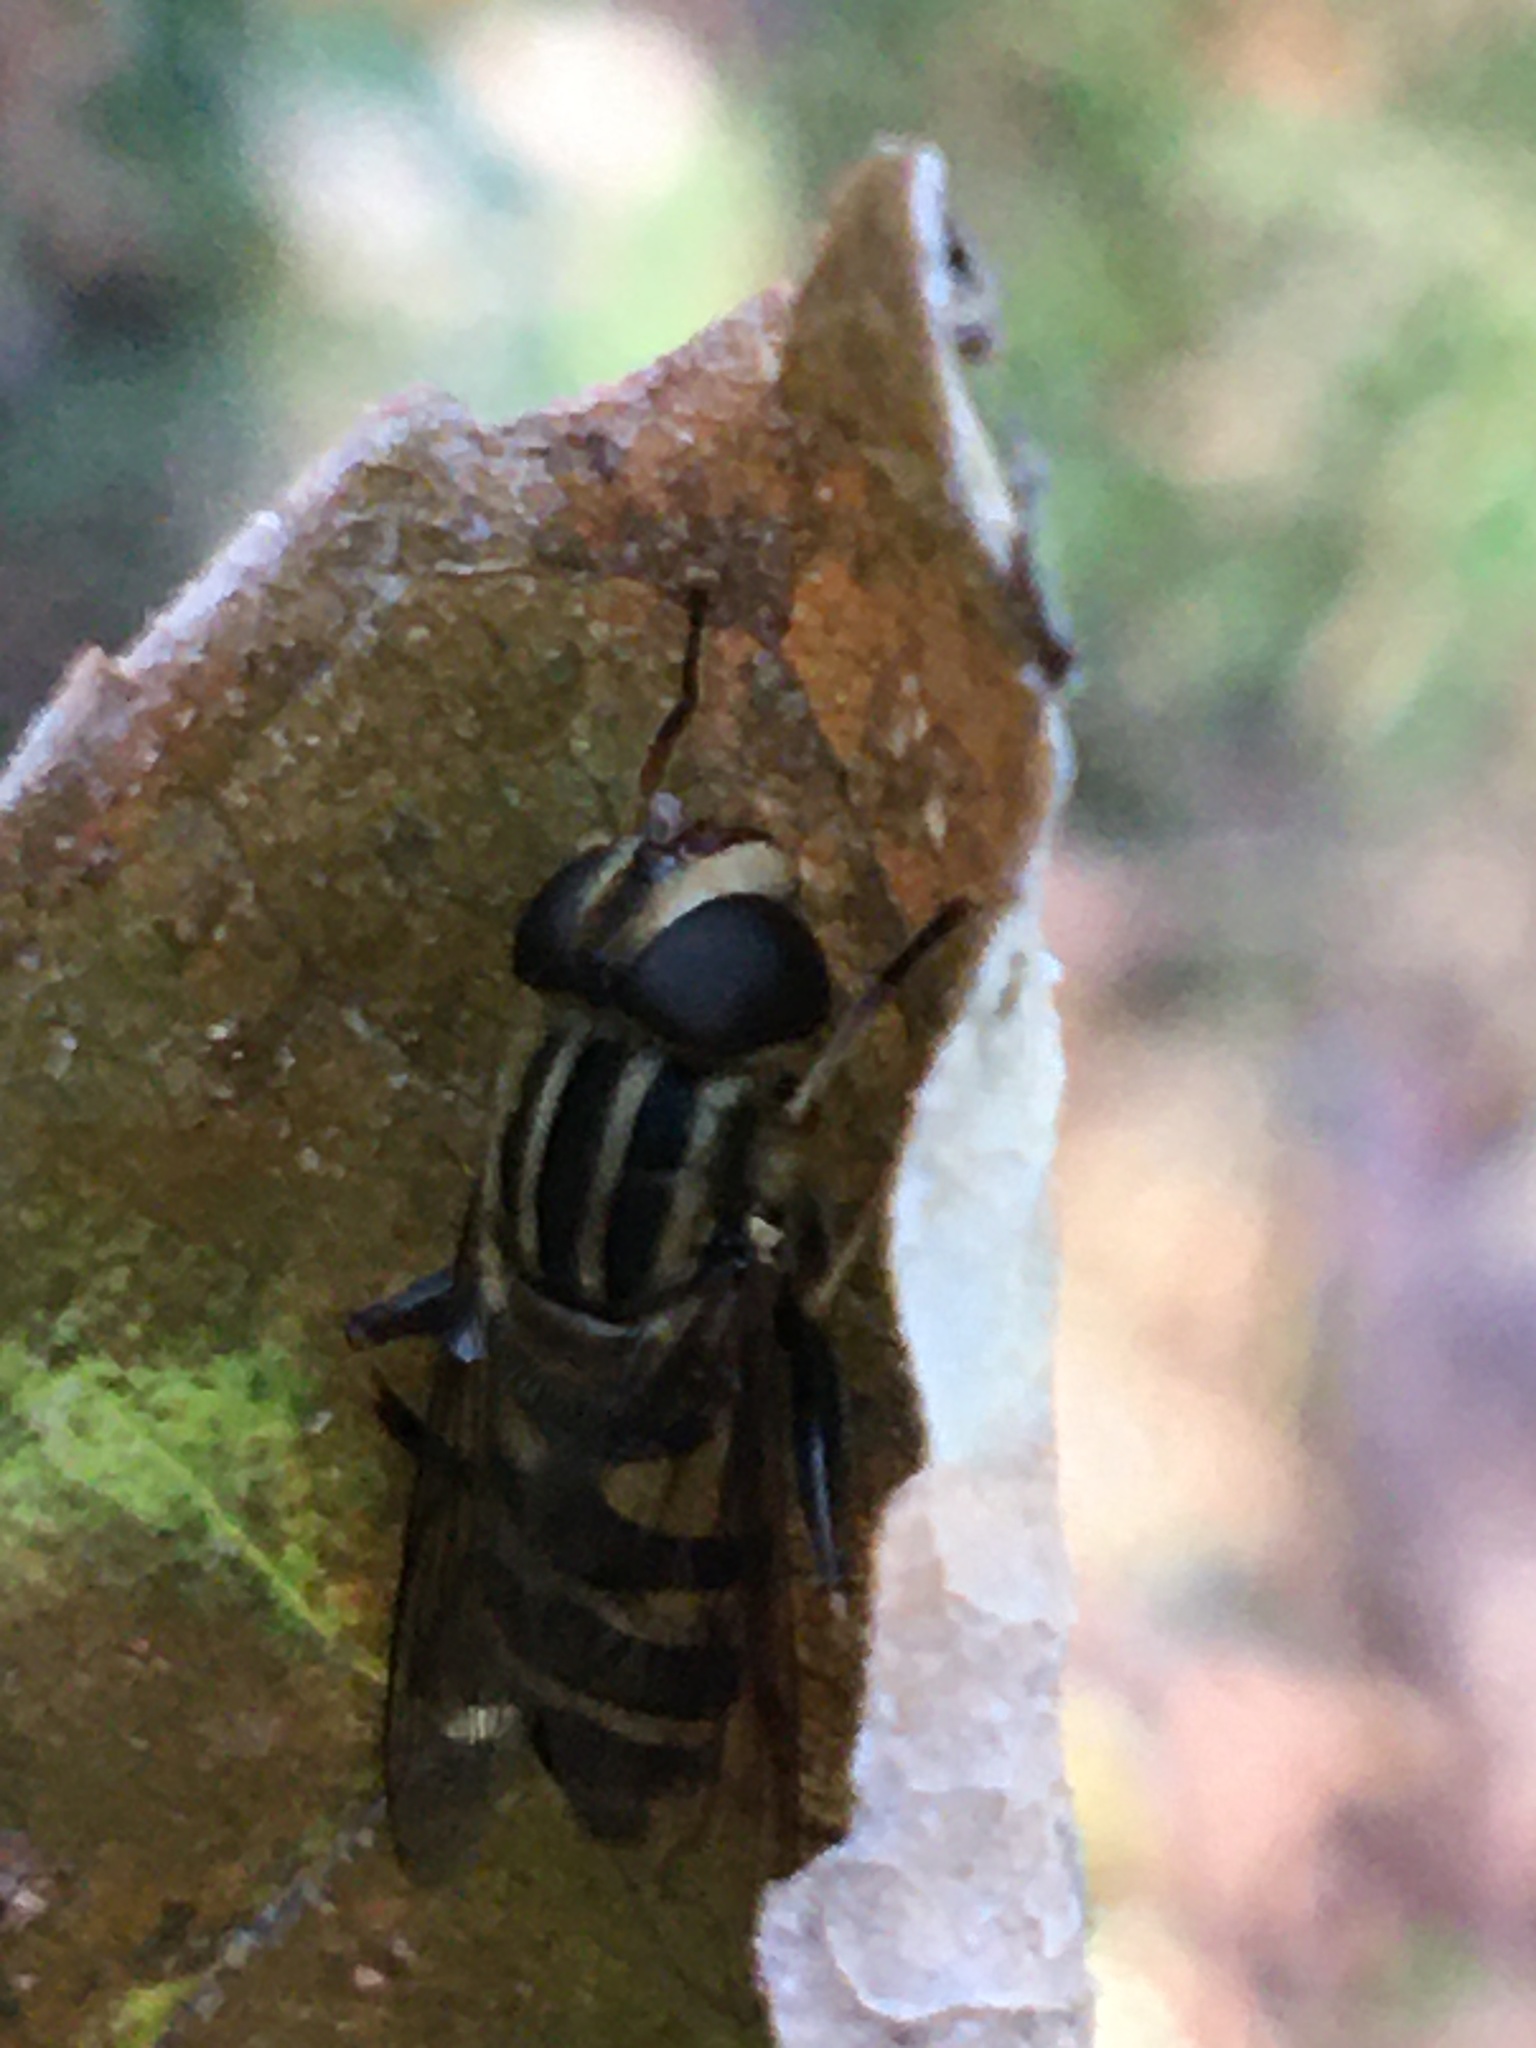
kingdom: Animalia
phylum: Arthropoda
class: Insecta
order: Diptera
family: Syrphidae
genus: Helophilus
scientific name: Helophilus fasciatus
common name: Narrow-headed marsh fly
